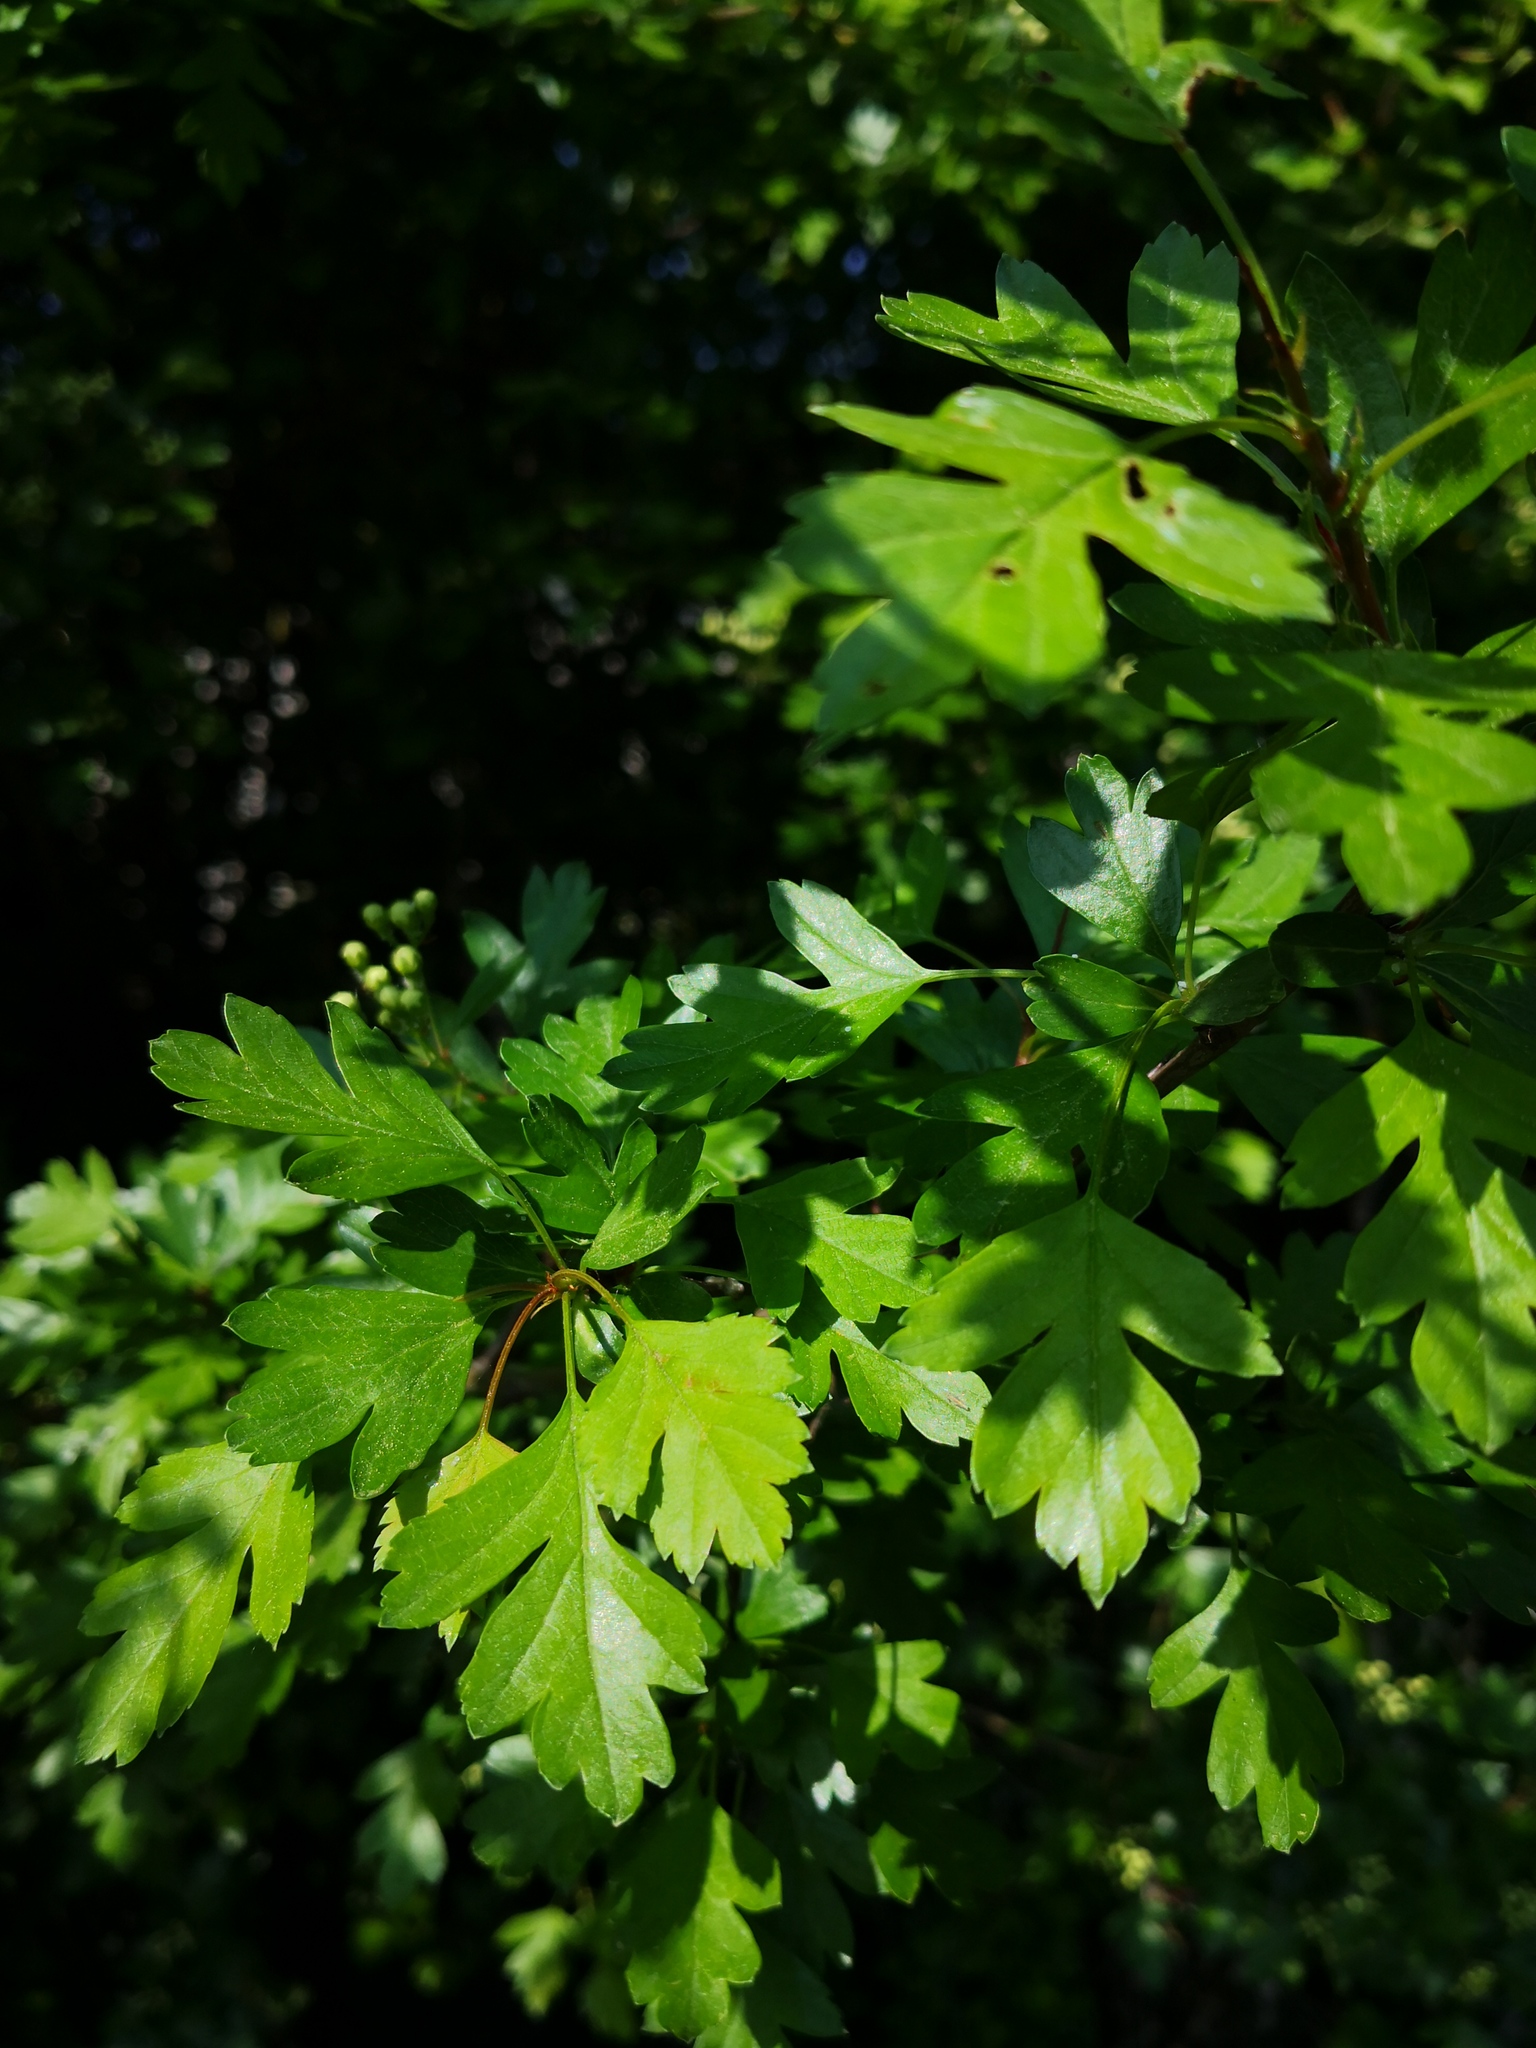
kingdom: Plantae
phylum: Tracheophyta
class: Magnoliopsida
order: Rosales
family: Rosaceae
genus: Crataegus
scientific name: Crataegus monogyna
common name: Hawthorn
